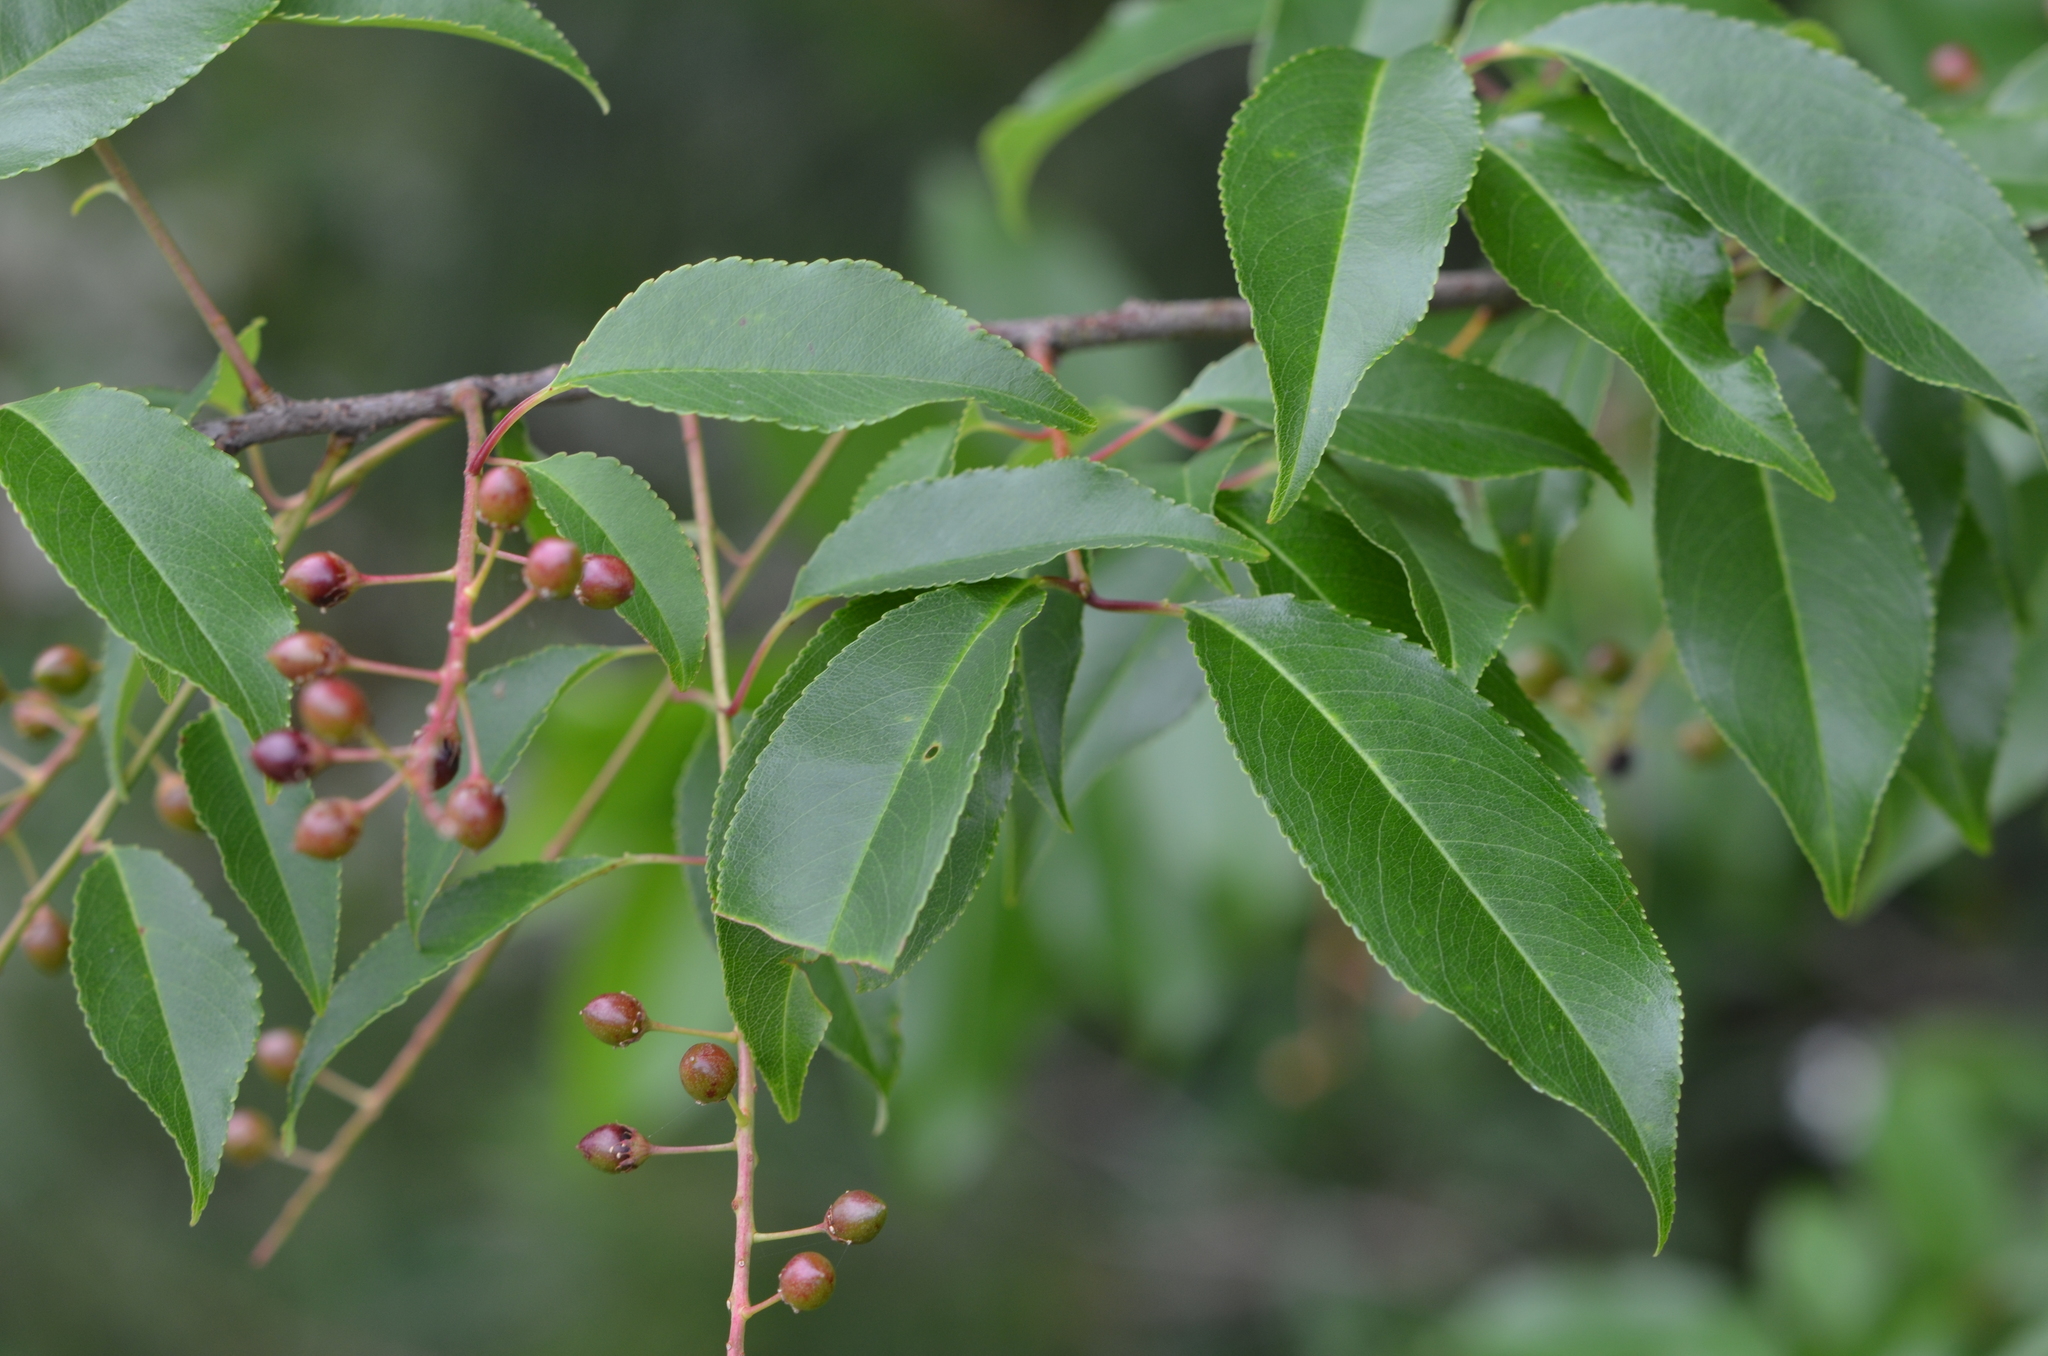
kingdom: Plantae
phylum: Tracheophyta
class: Magnoliopsida
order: Rosales
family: Rosaceae
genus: Prunus
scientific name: Prunus serotina
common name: Black cherry
